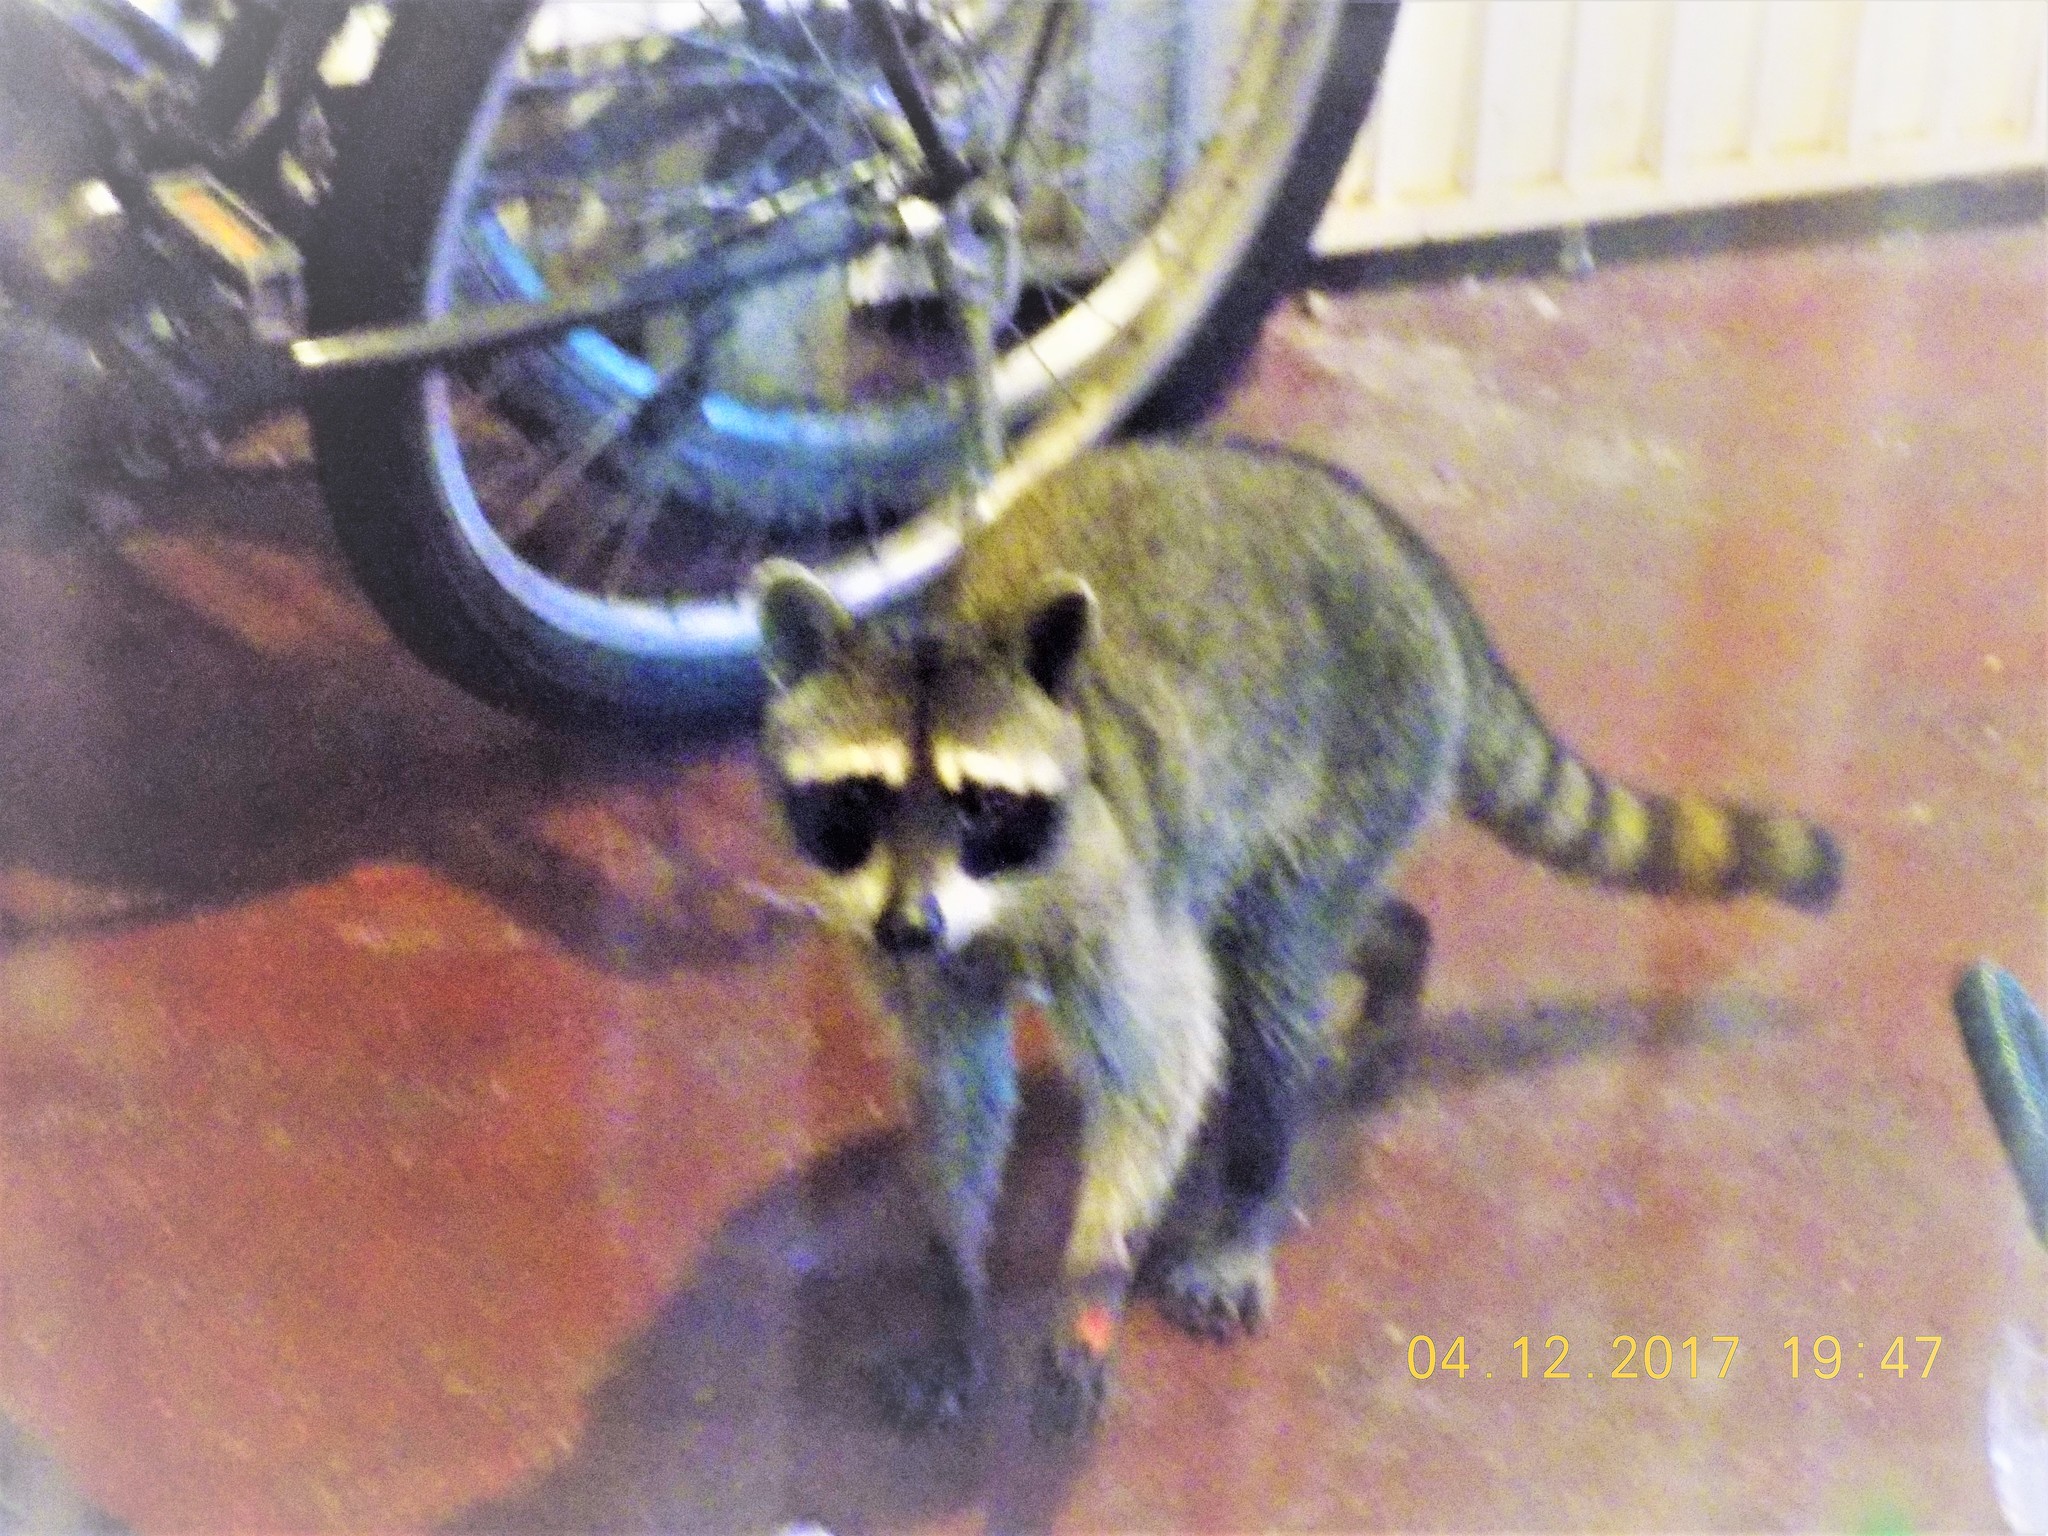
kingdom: Animalia
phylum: Chordata
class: Mammalia
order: Carnivora
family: Procyonidae
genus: Procyon
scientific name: Procyon lotor
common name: Raccoon
